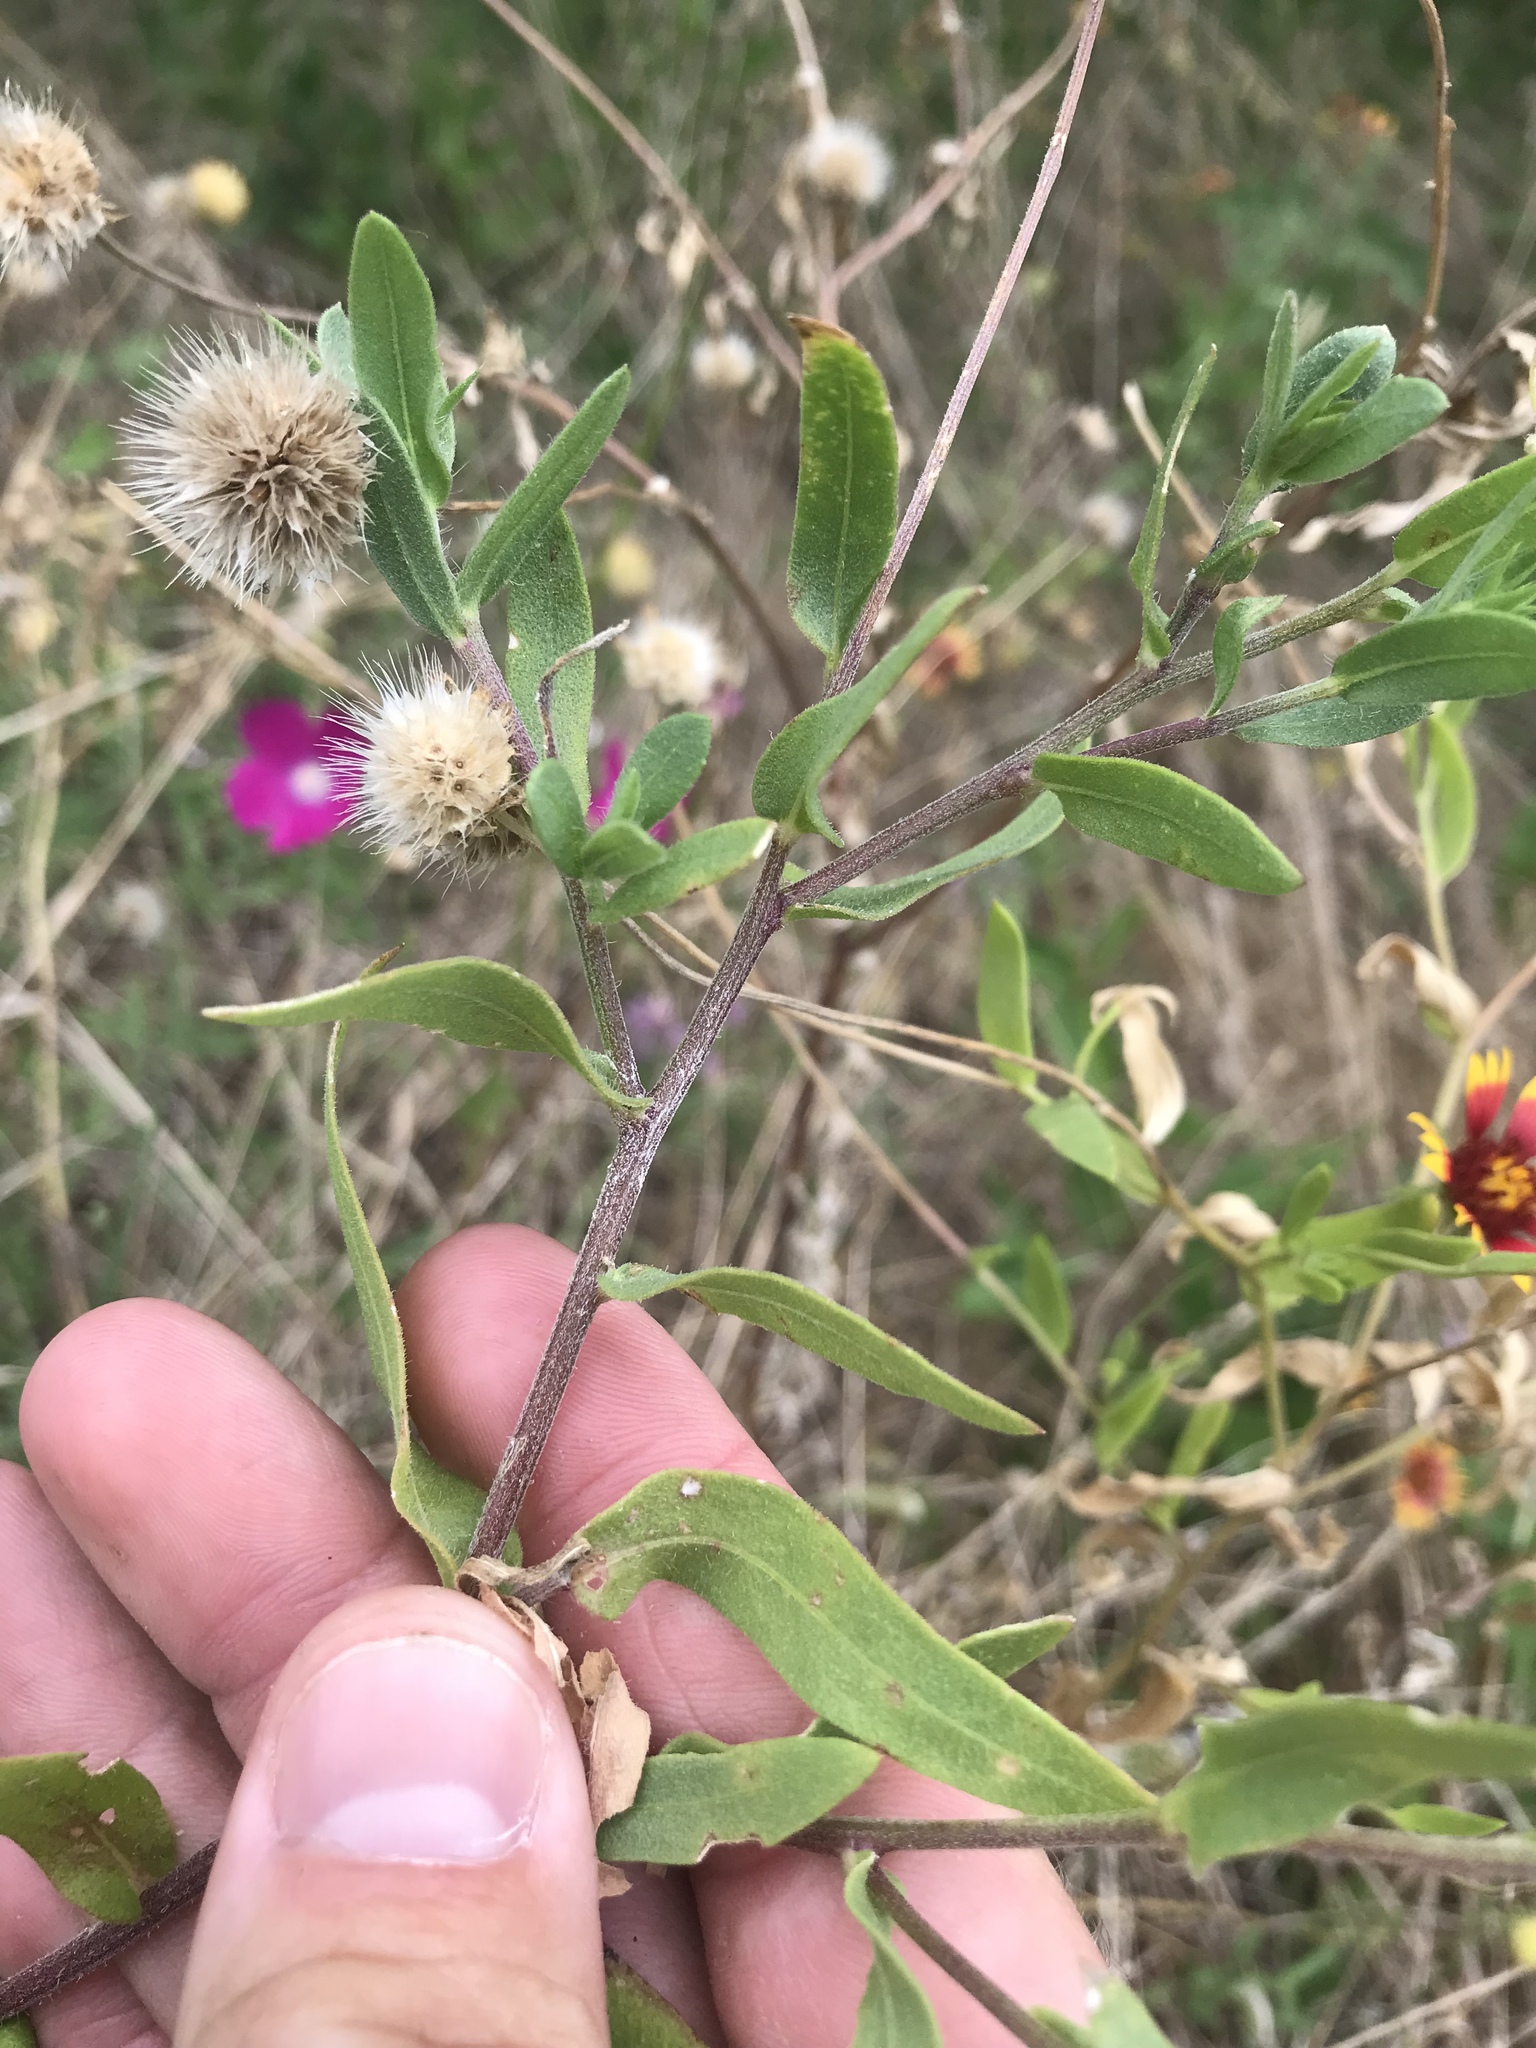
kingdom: Plantae
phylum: Tracheophyta
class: Magnoliopsida
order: Asterales
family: Asteraceae
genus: Gaillardia
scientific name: Gaillardia pulchella
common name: Firewheel
